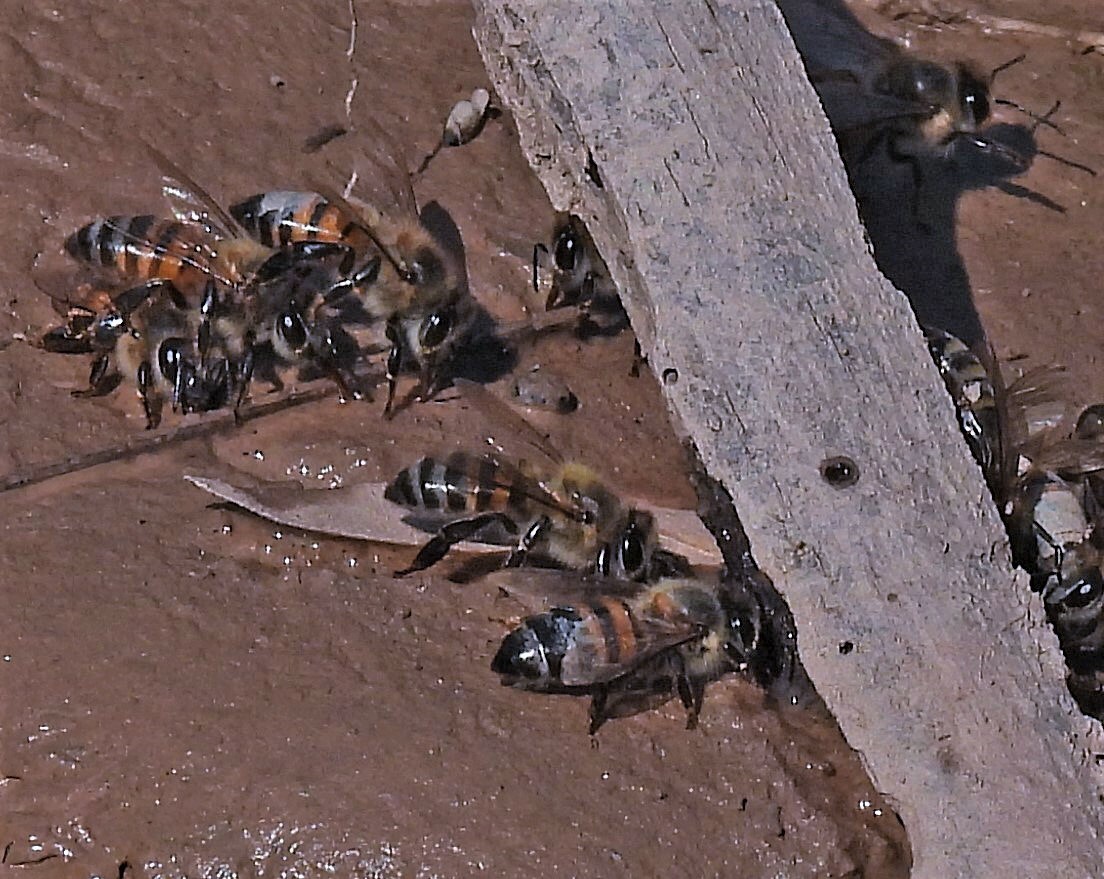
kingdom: Animalia
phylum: Arthropoda
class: Insecta
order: Hymenoptera
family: Apidae
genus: Apis
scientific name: Apis mellifera
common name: Honey bee
